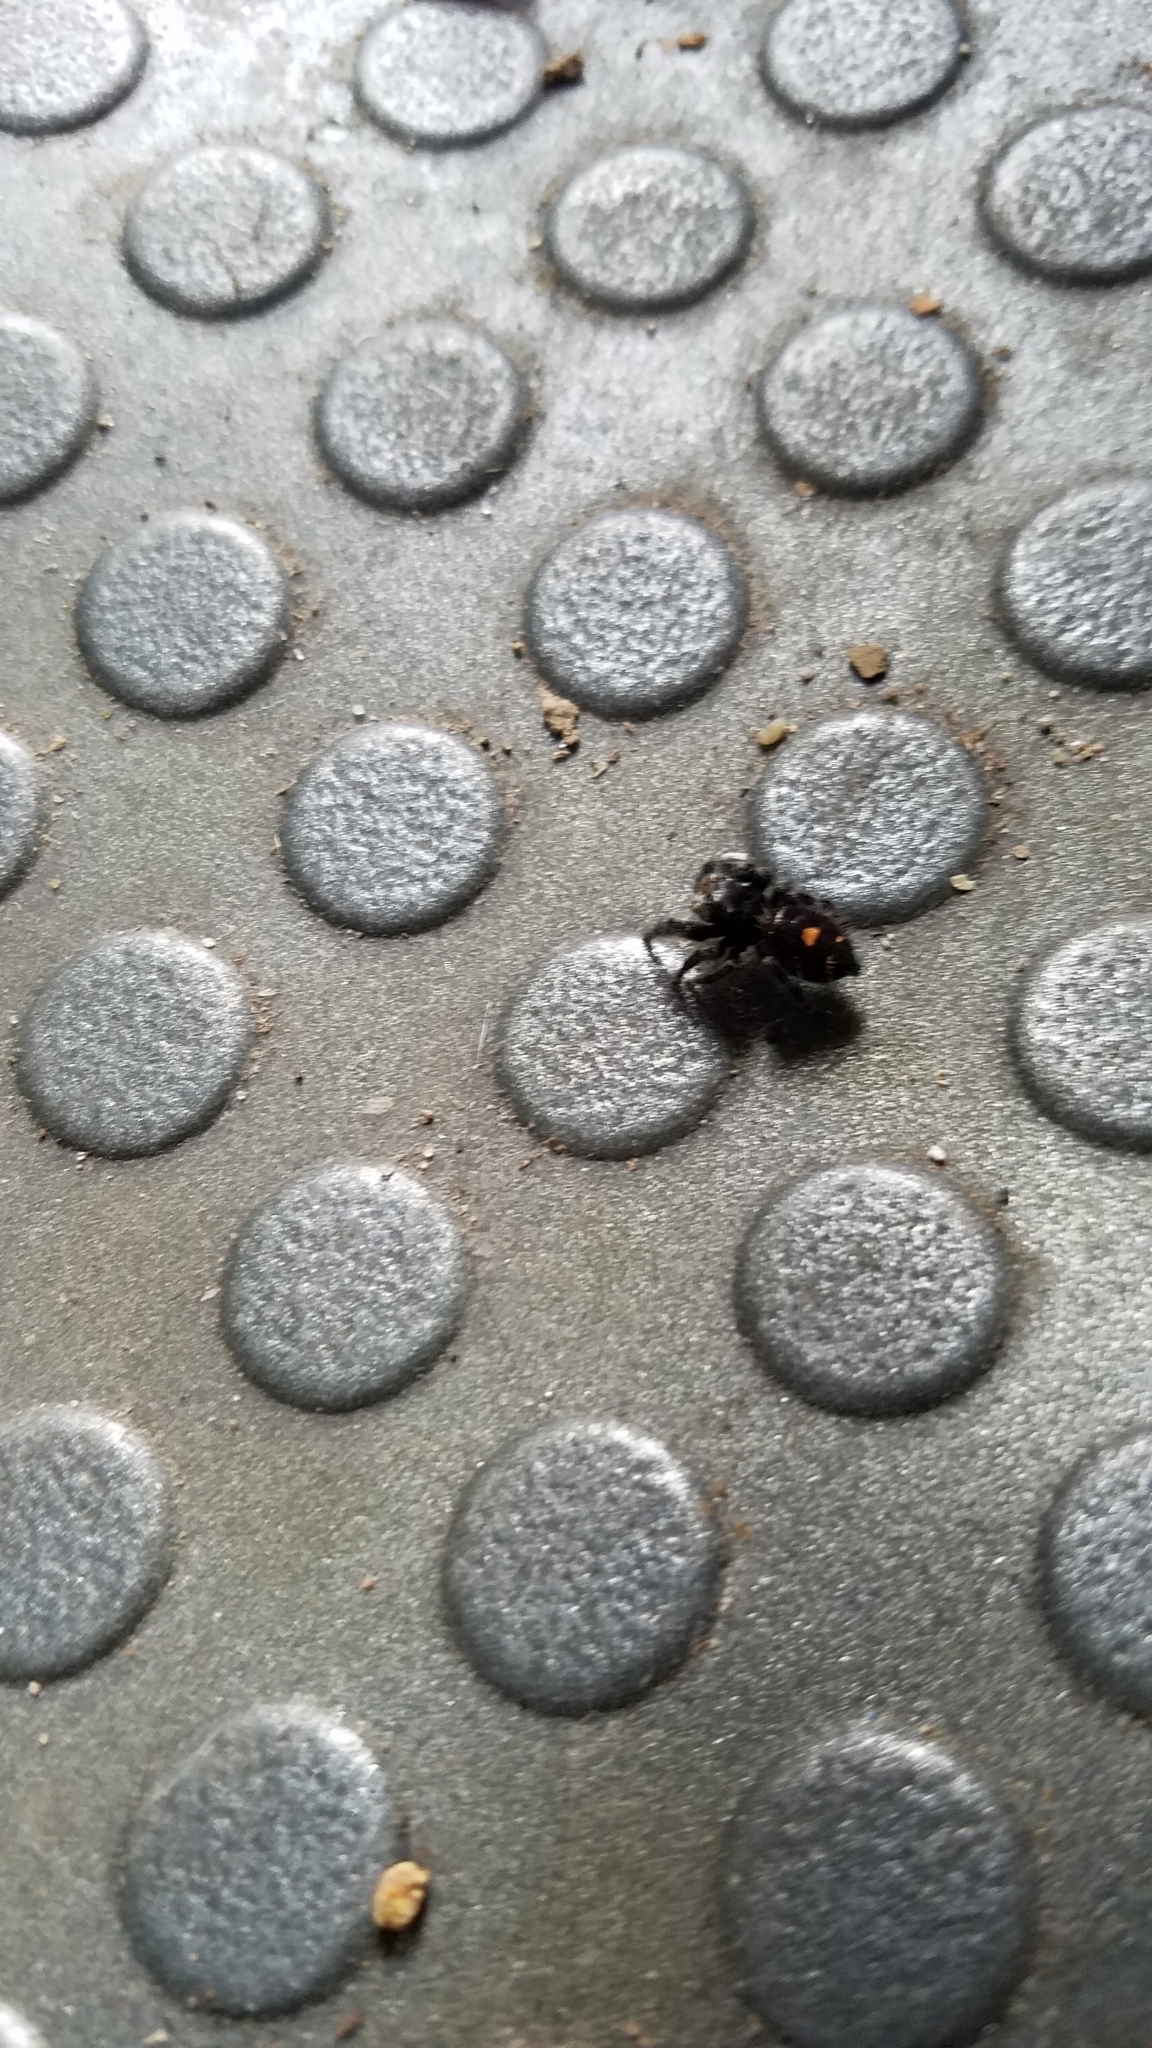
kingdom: Animalia
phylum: Arthropoda
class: Arachnida
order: Araneae
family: Salticidae
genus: Phidippus
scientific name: Phidippus audax
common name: Bold jumper
